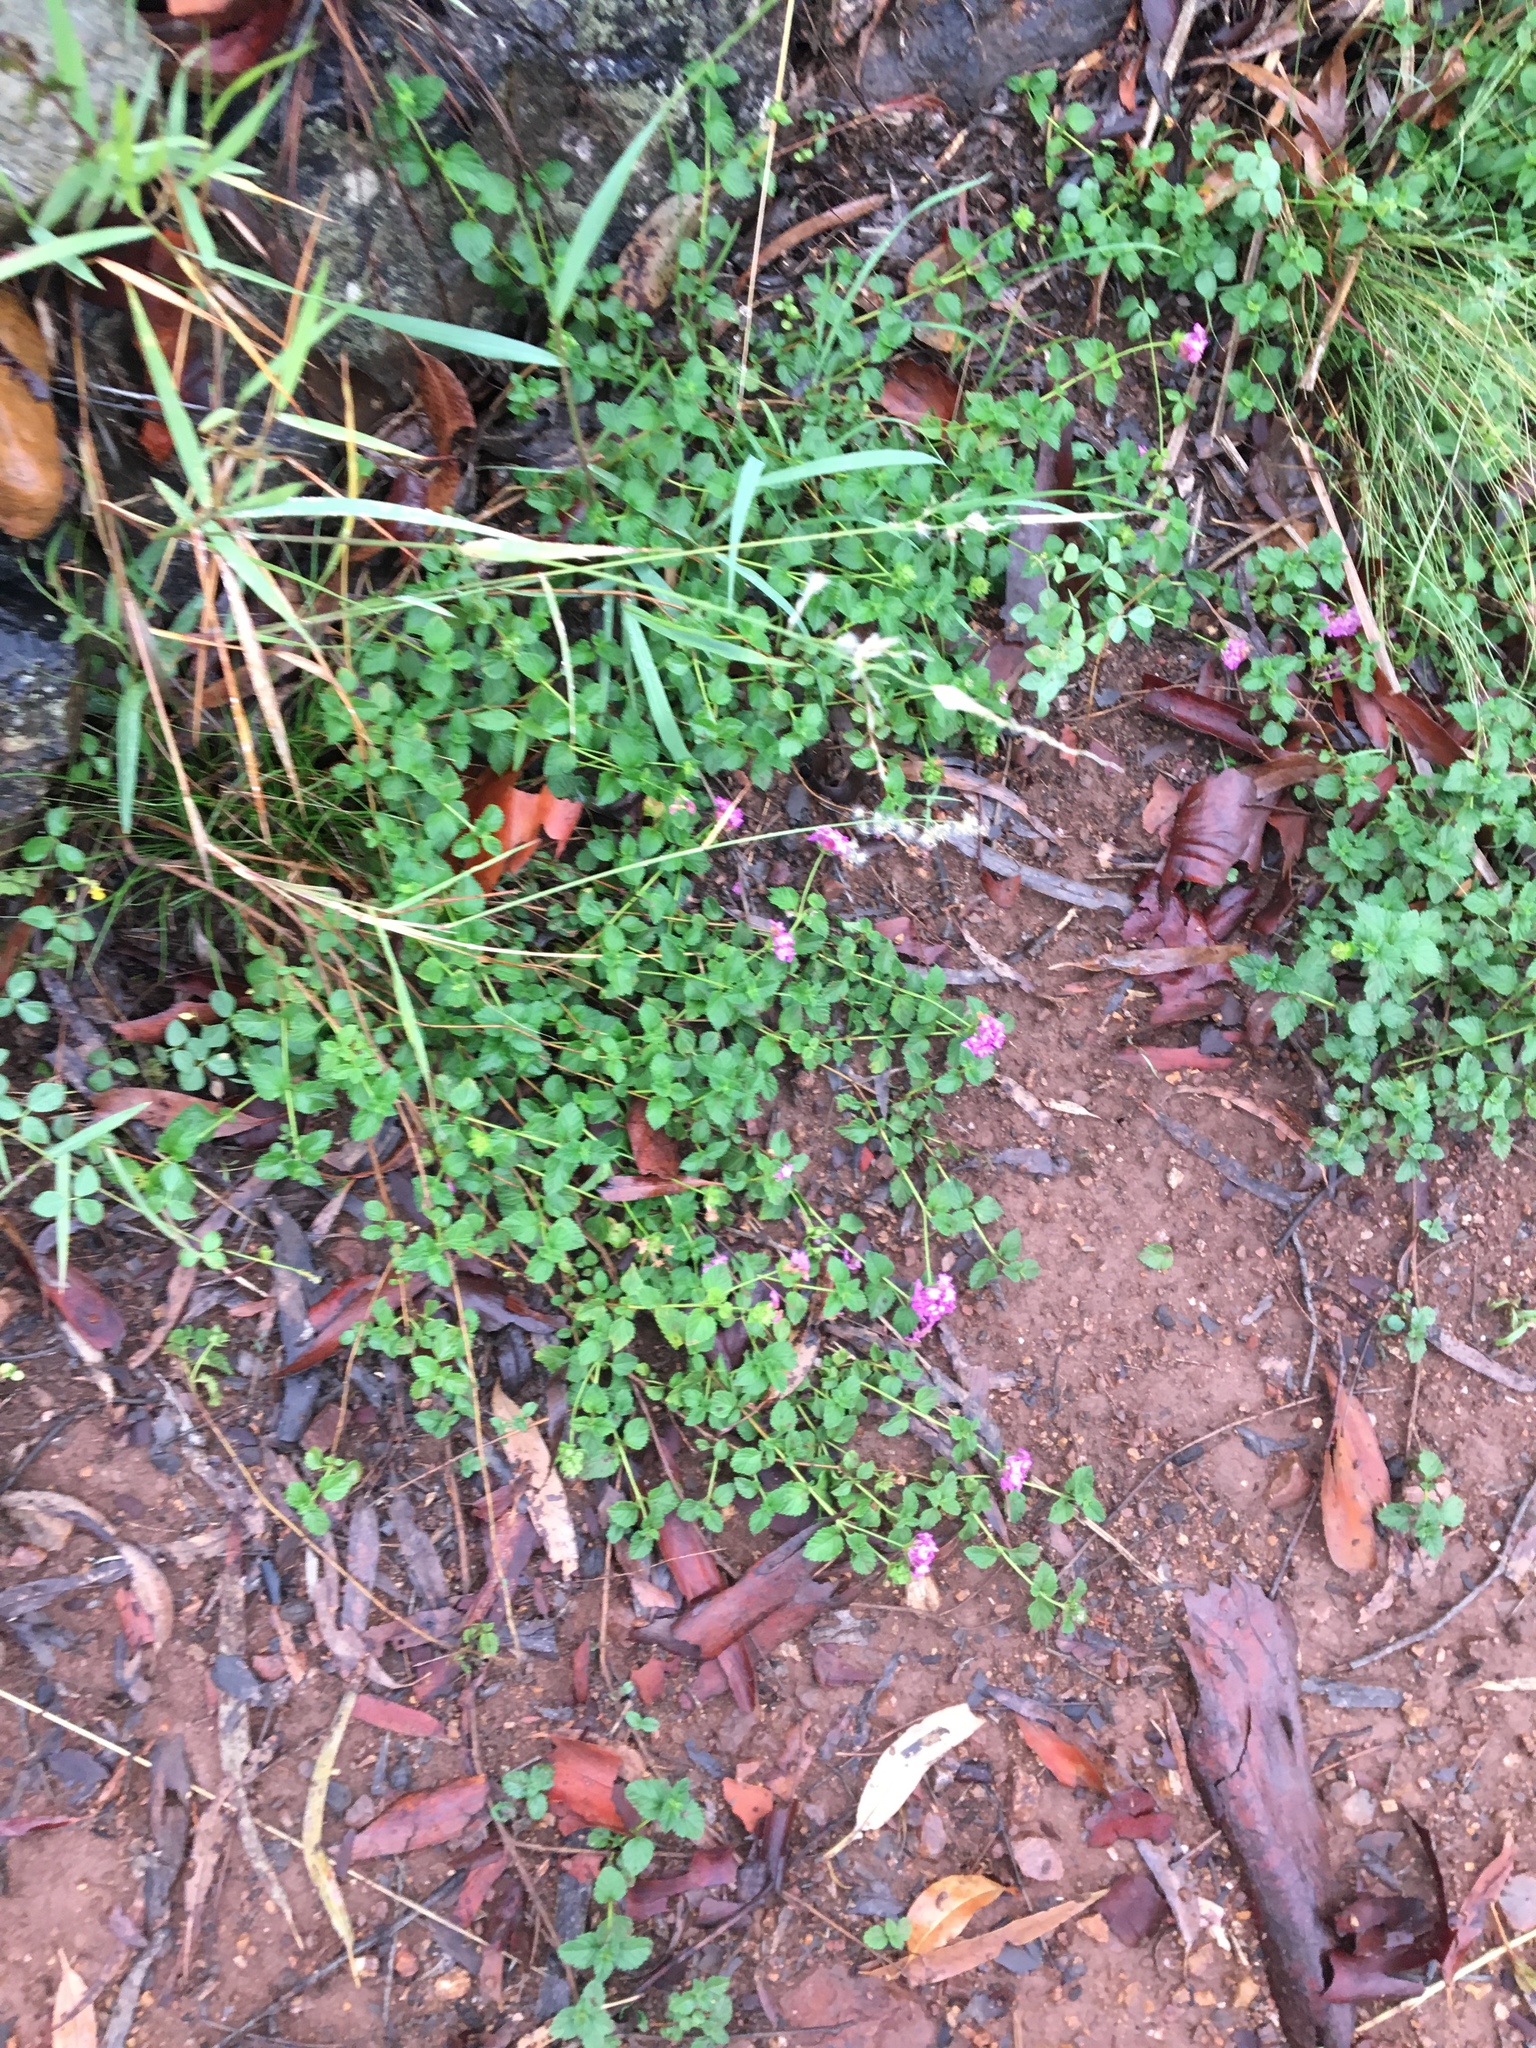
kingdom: Plantae
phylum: Tracheophyta
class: Magnoliopsida
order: Lamiales
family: Verbenaceae
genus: Lantana
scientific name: Lantana montevidensis
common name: Trailing shrubverbena
